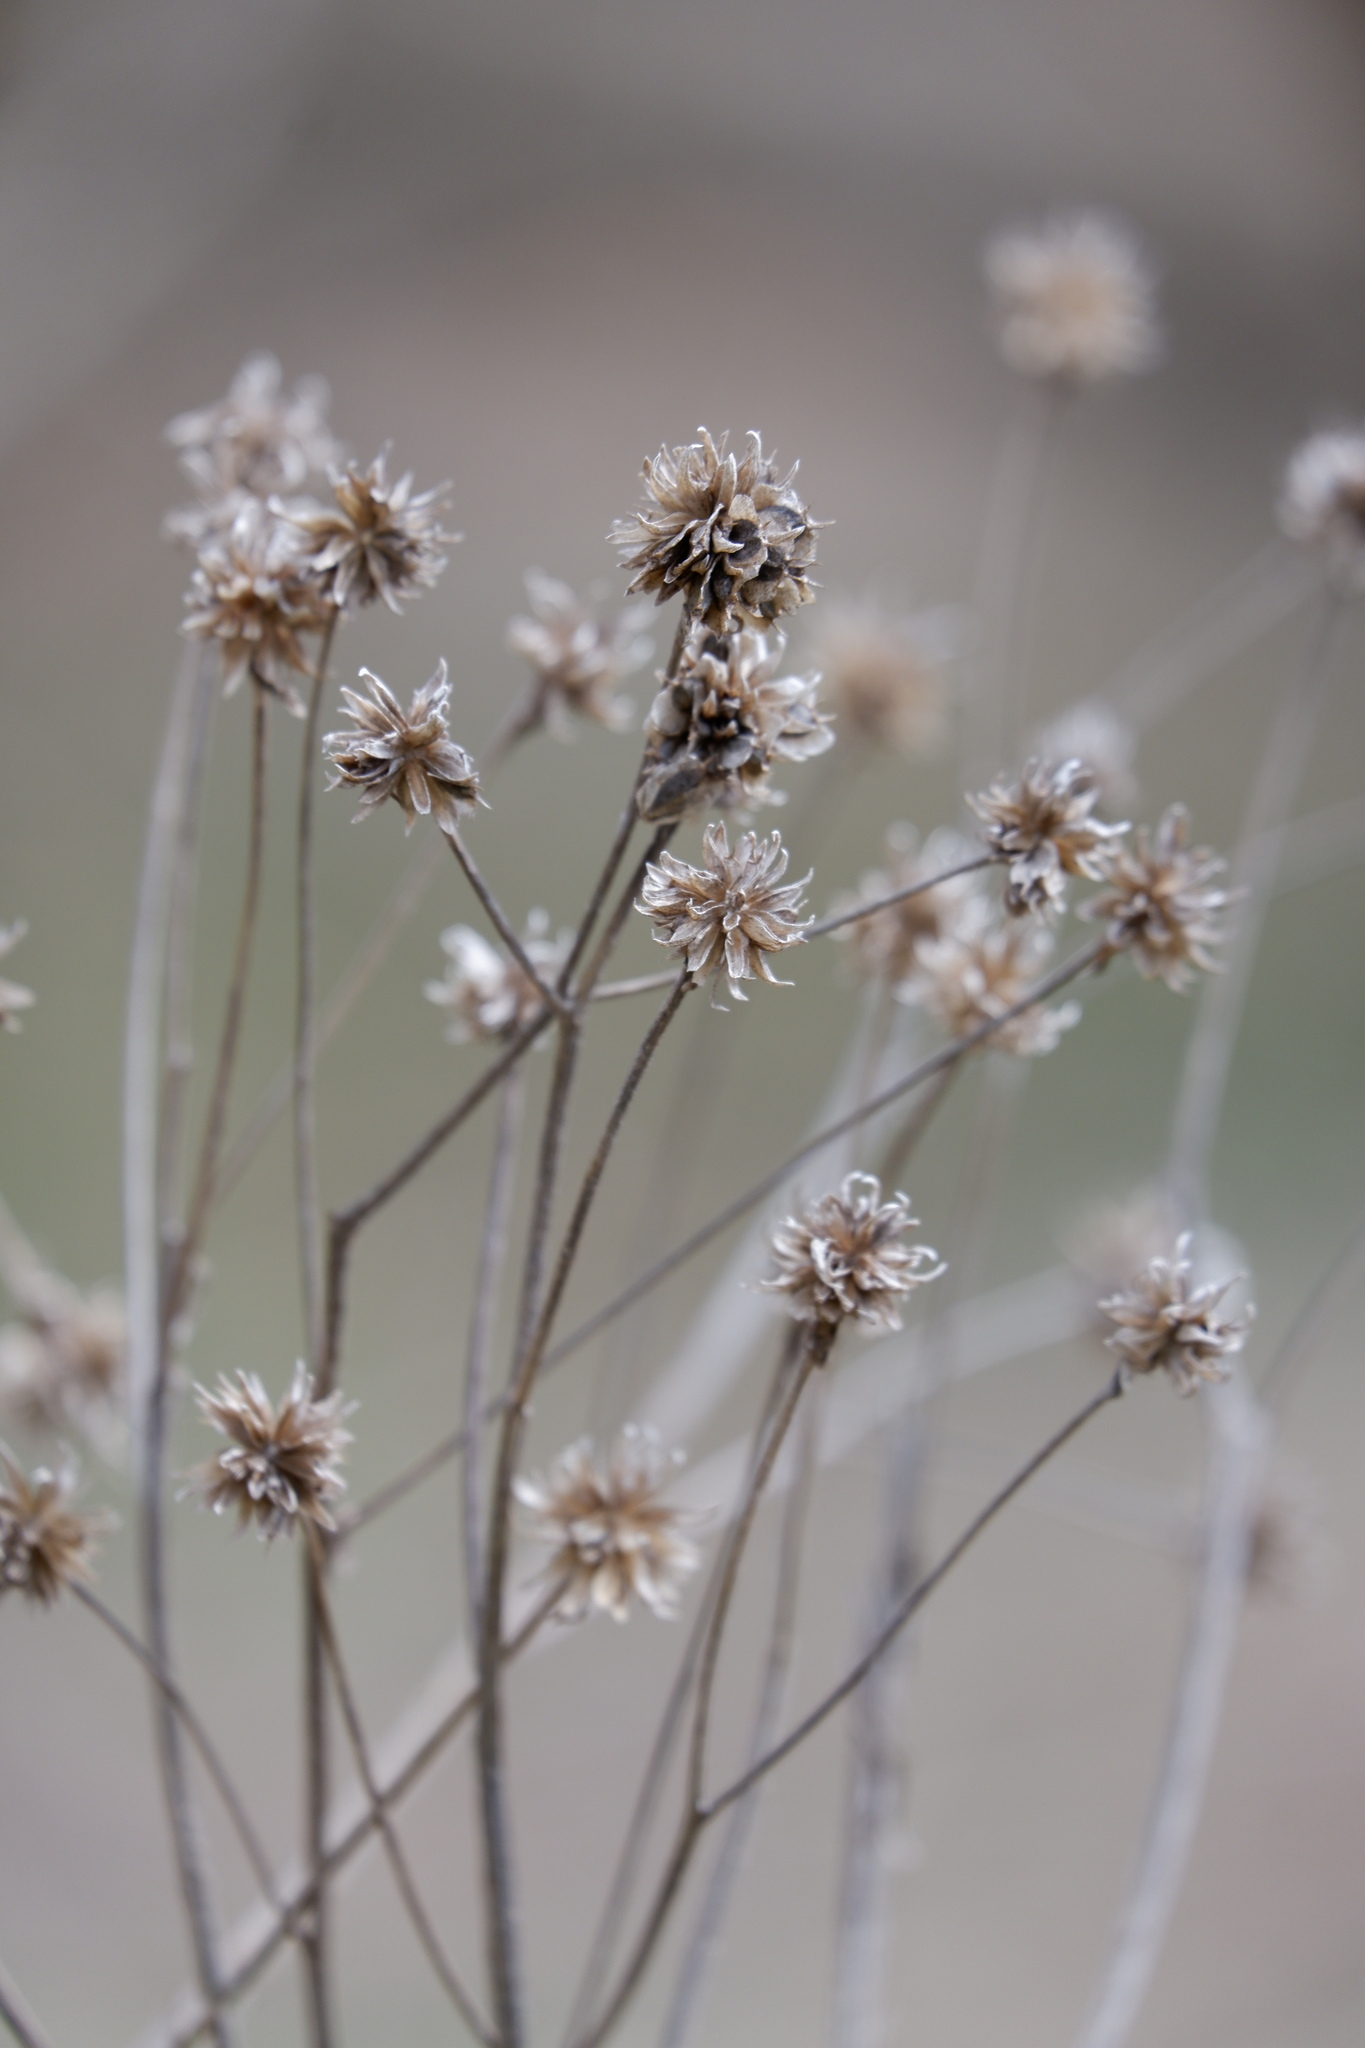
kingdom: Plantae
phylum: Tracheophyta
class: Magnoliopsida
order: Asterales
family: Asteraceae
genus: Verbesina
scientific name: Verbesina alternifolia
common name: Wingstem
